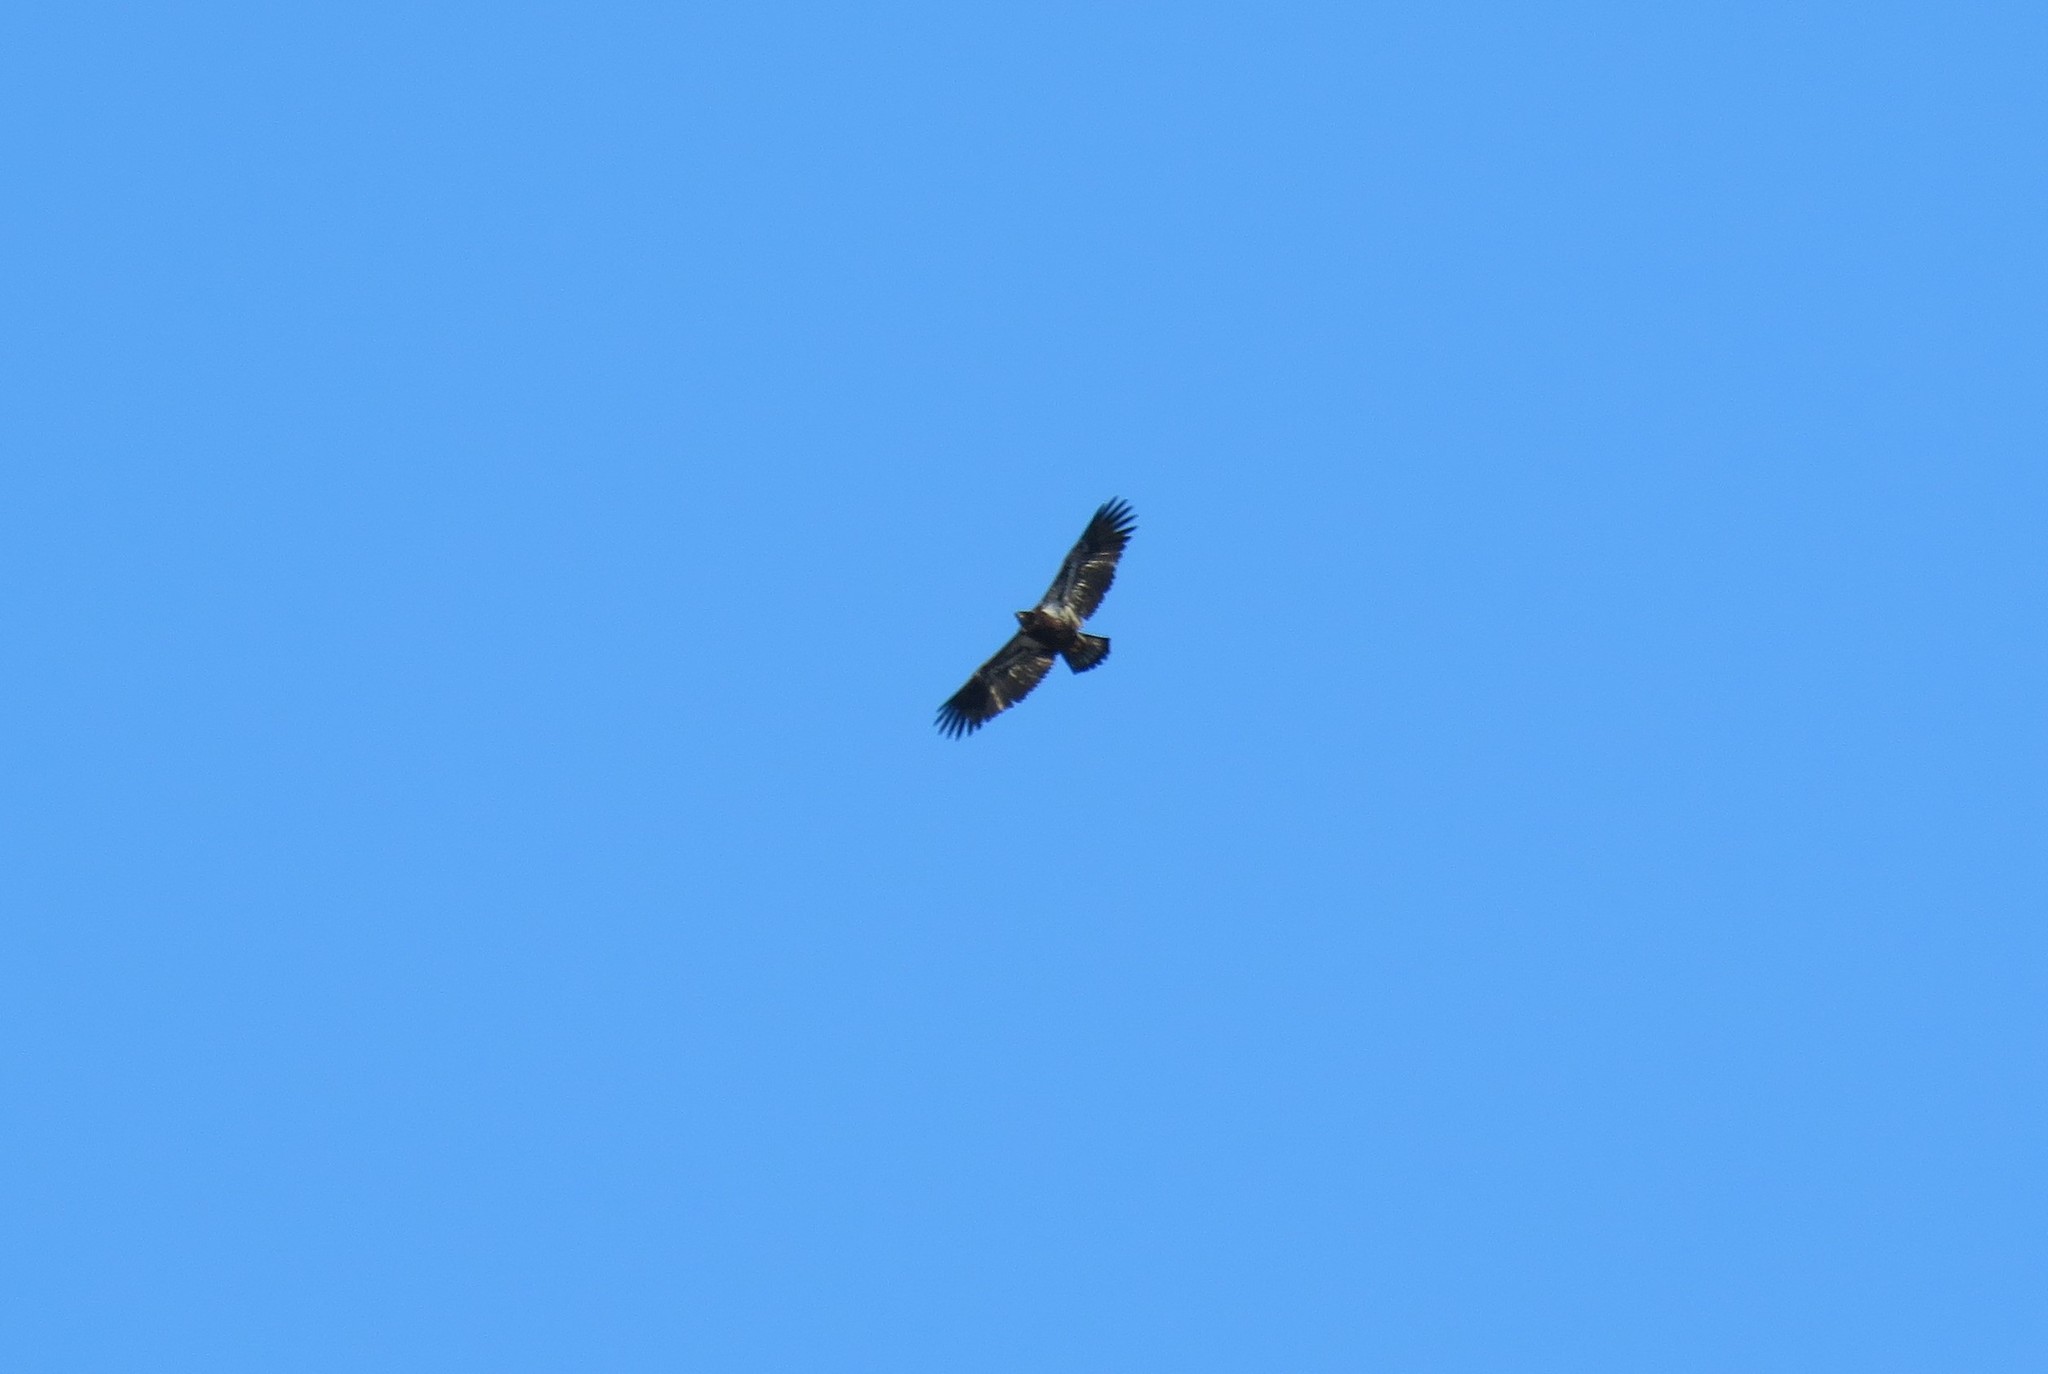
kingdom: Animalia
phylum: Chordata
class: Aves
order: Accipitriformes
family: Accipitridae
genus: Haliaeetus
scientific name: Haliaeetus leucocephalus
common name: Bald eagle
